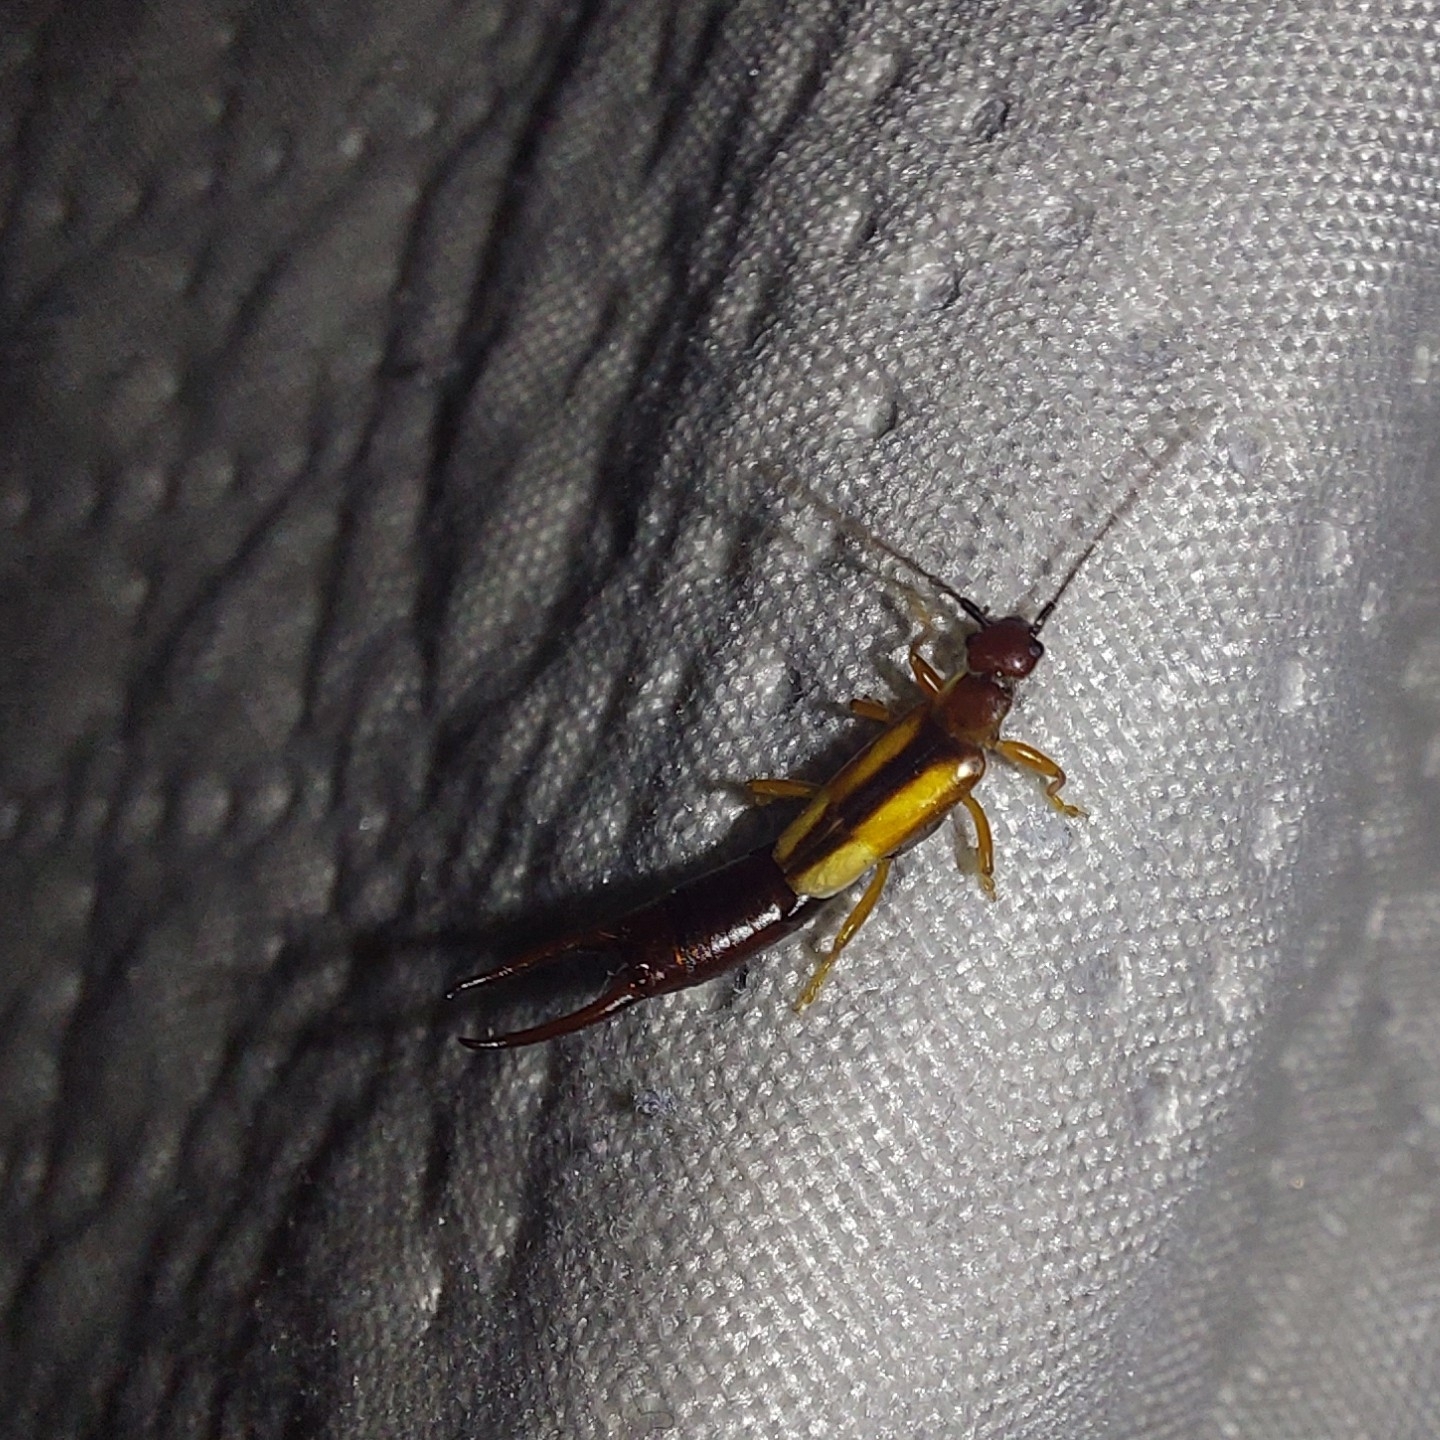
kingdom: Animalia
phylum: Arthropoda
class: Insecta
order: Dermaptera
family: Forficulidae
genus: Doru
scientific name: Doru lineare
